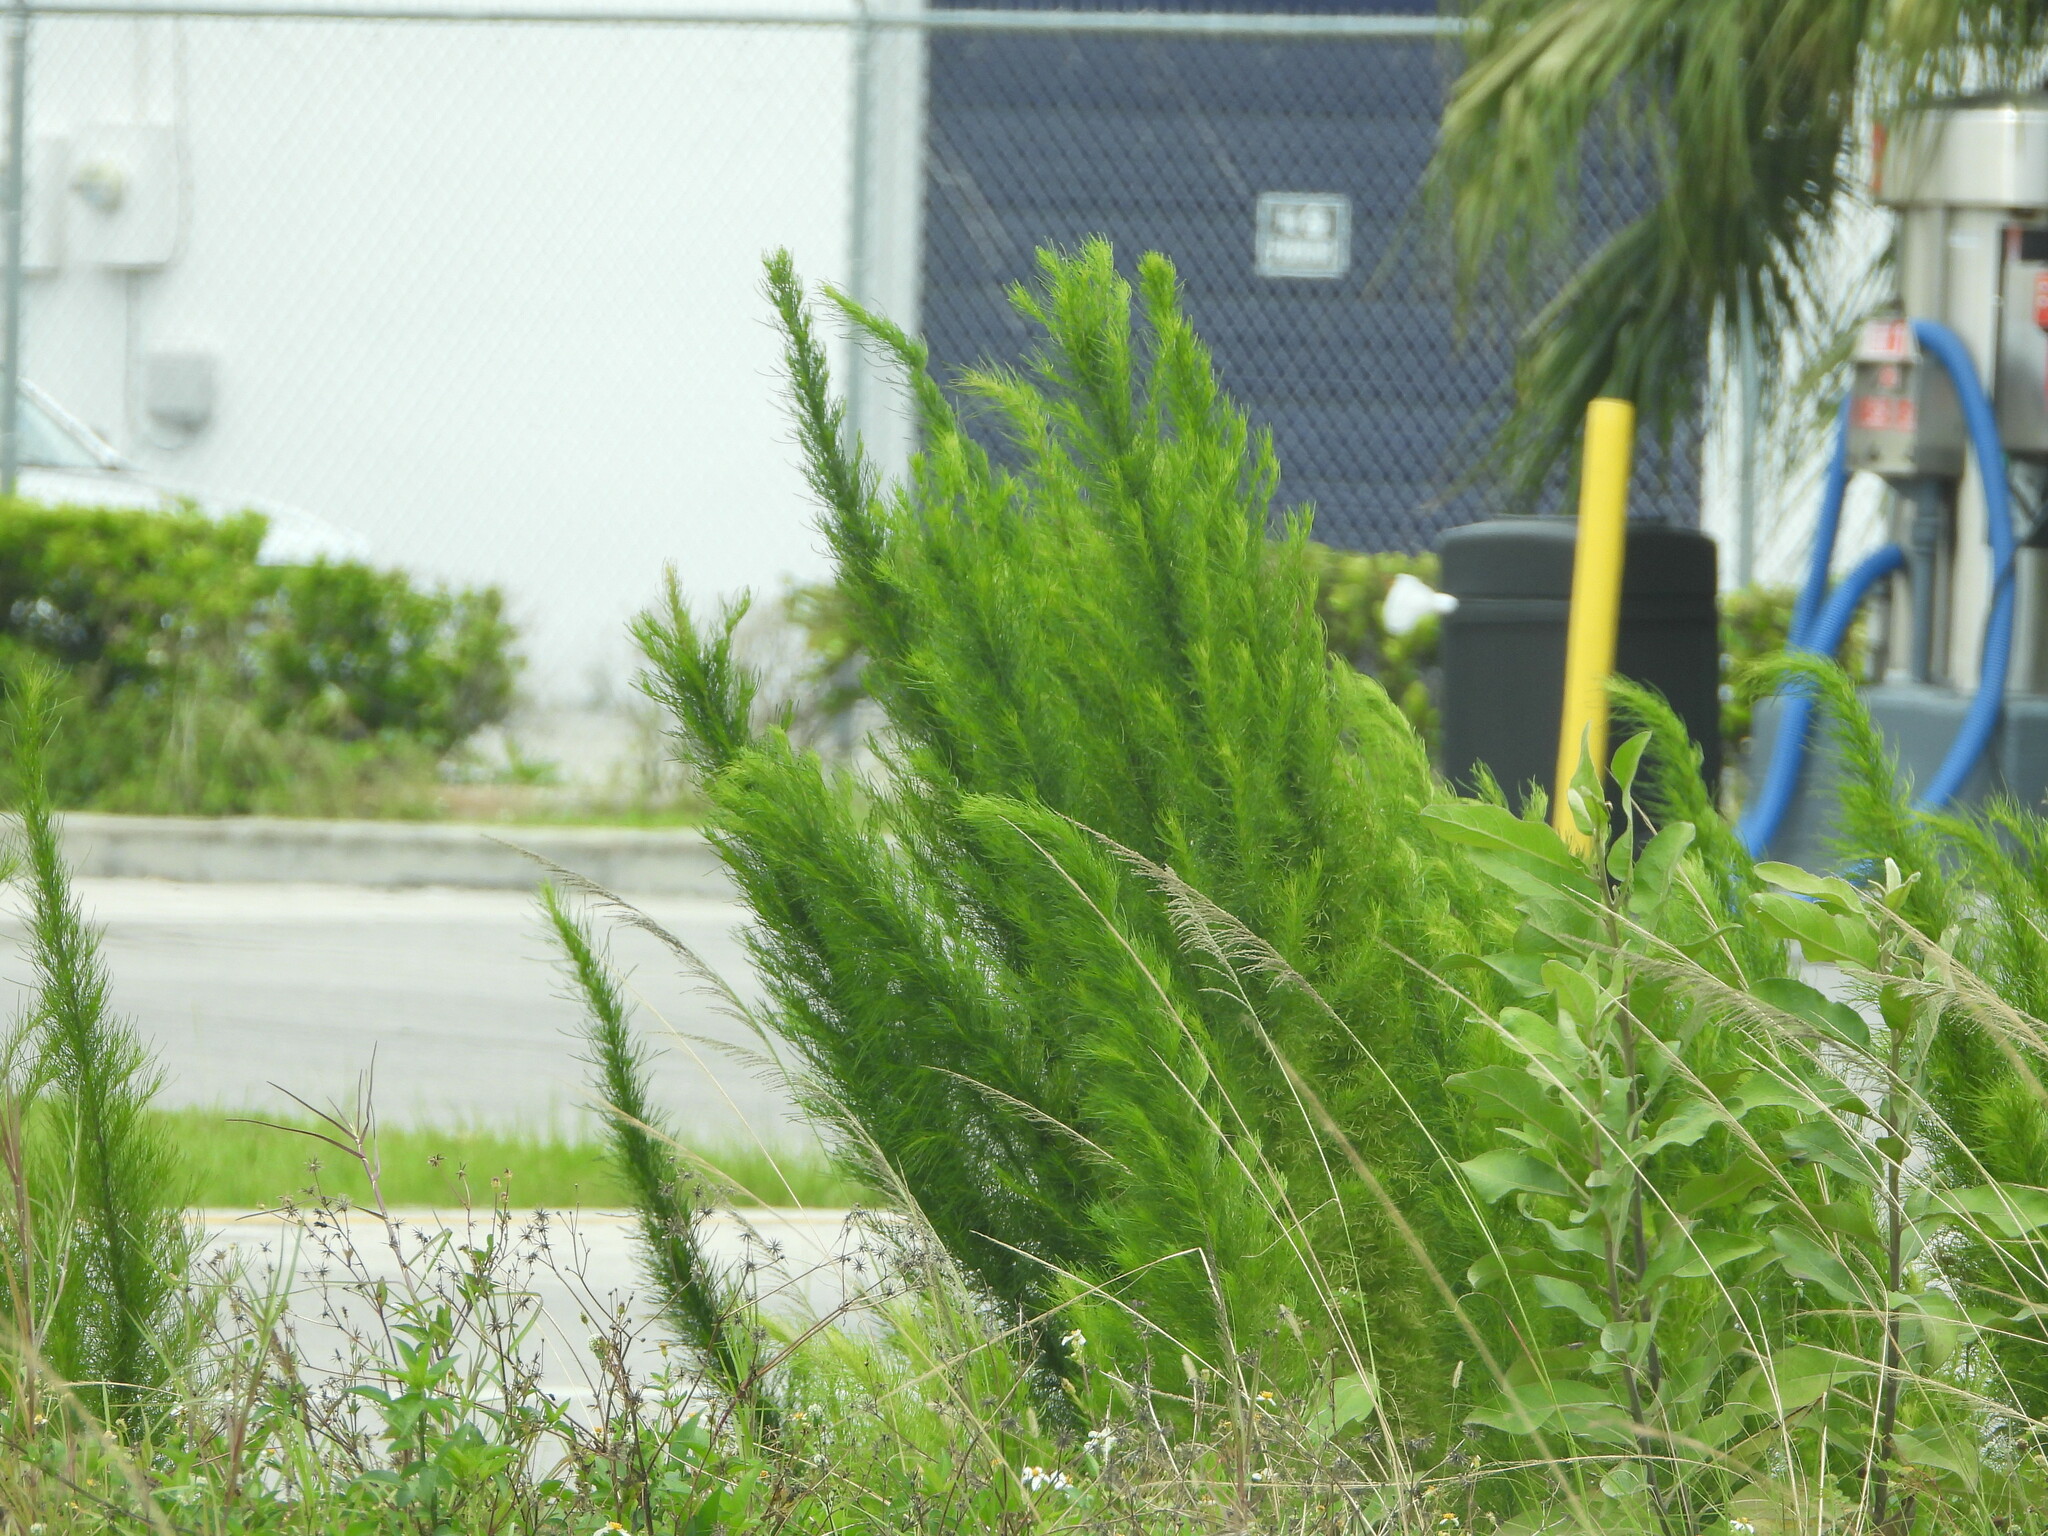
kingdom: Plantae
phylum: Tracheophyta
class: Magnoliopsida
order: Asterales
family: Asteraceae
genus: Eupatorium
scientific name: Eupatorium capillifolium
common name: Dog-fennel
